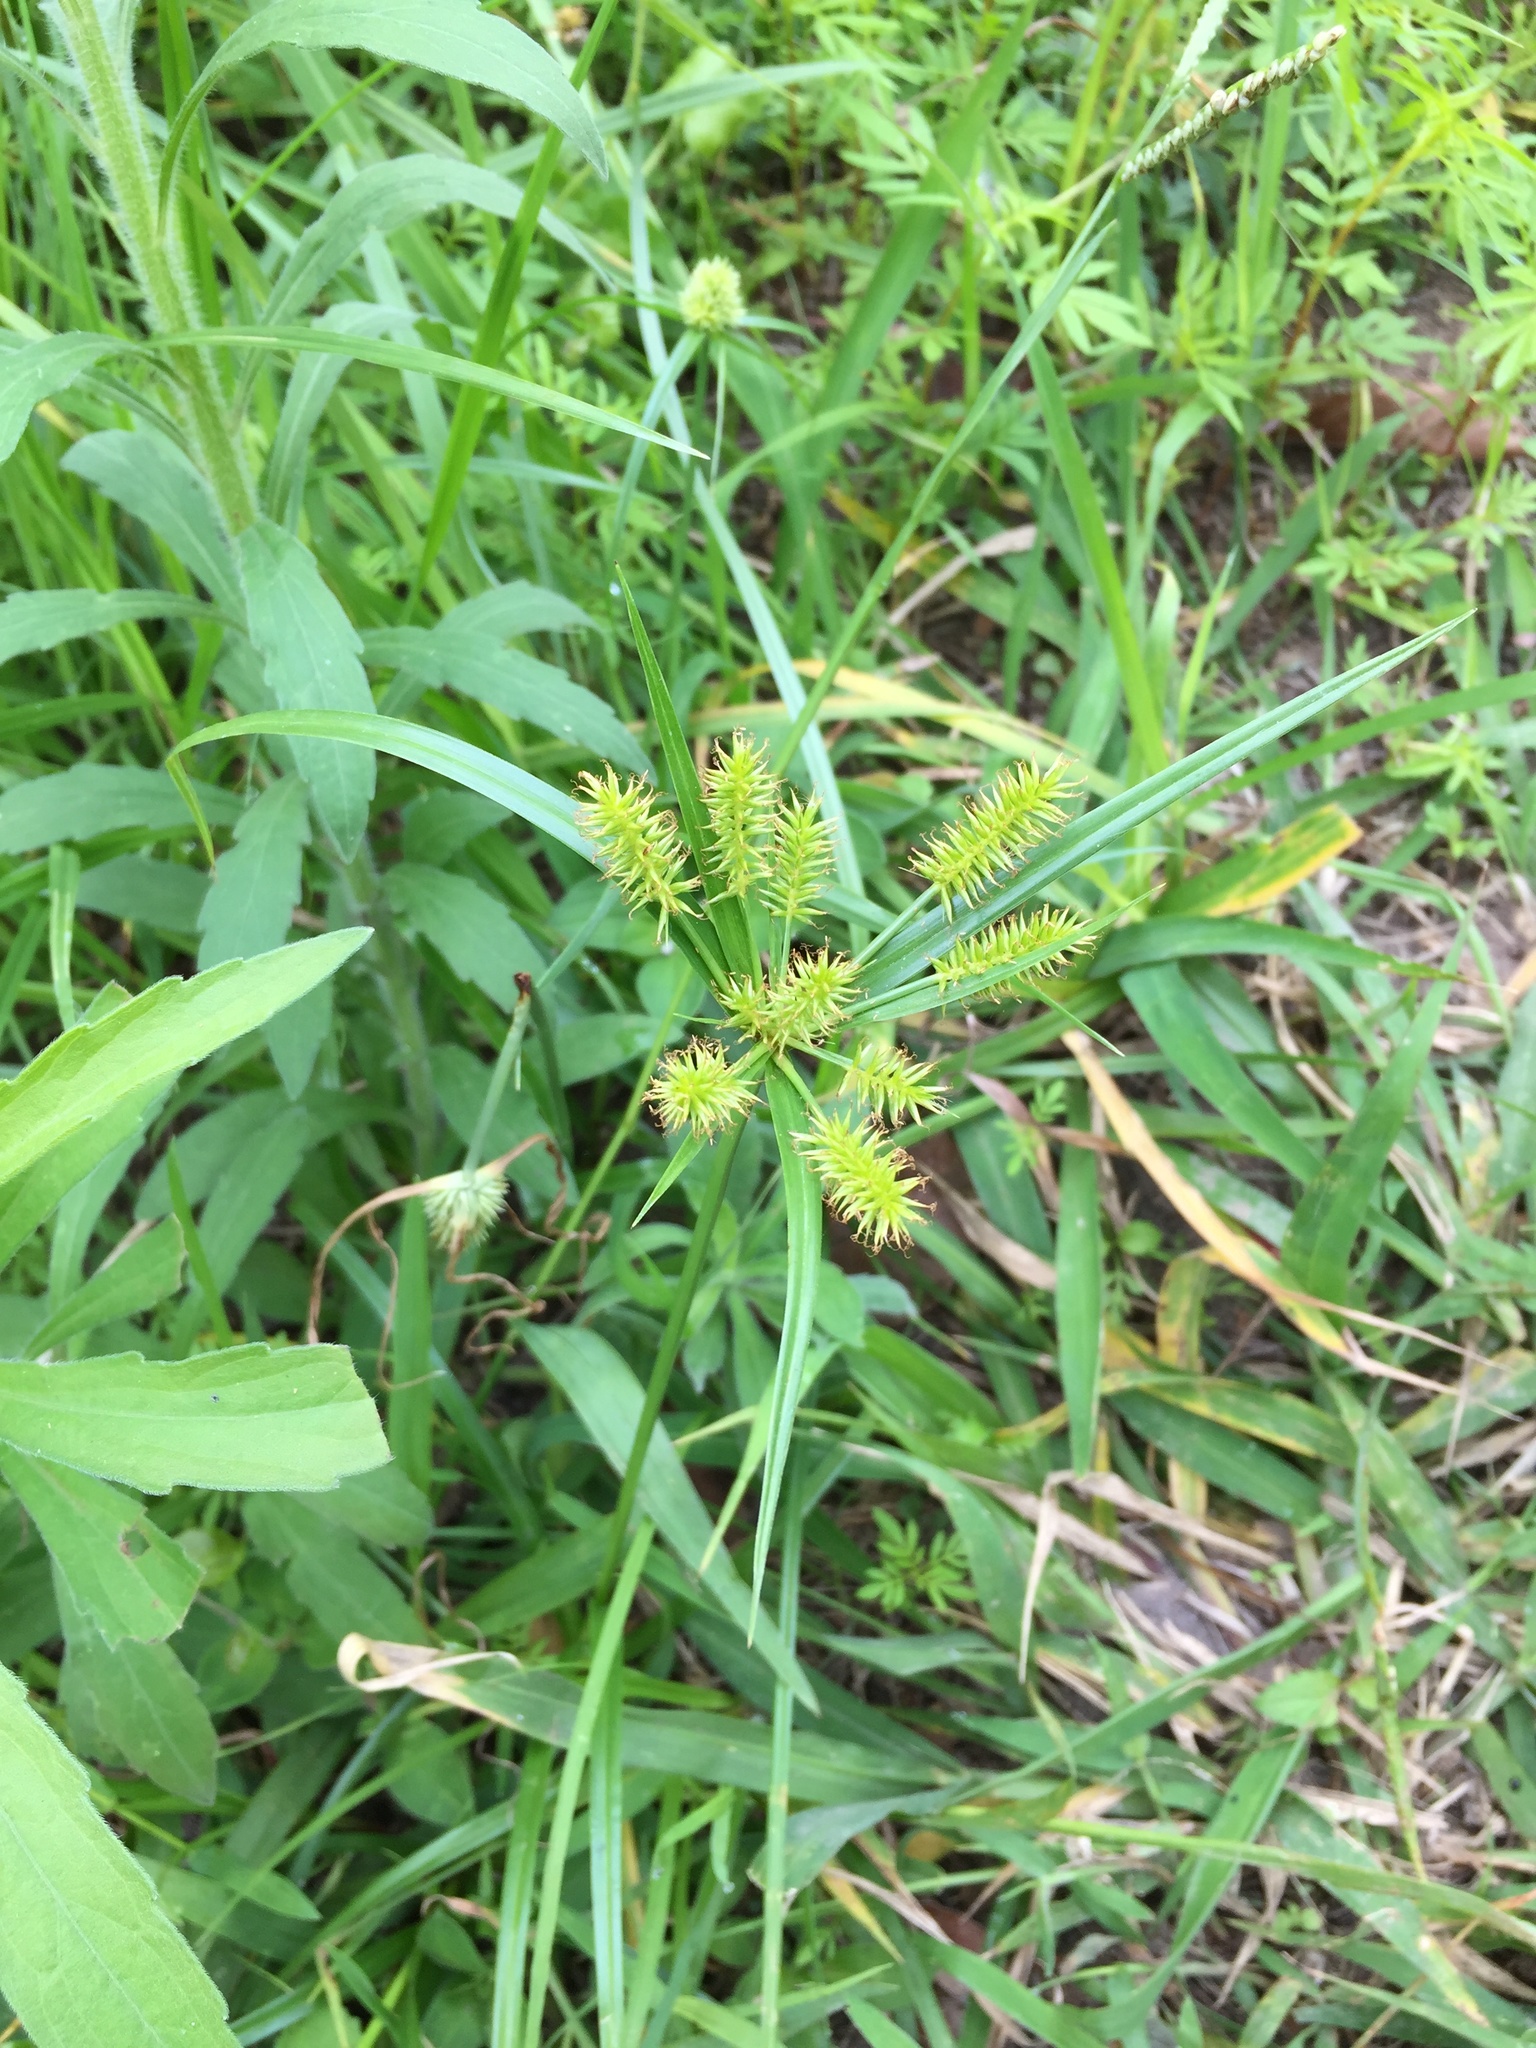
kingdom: Plantae
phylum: Tracheophyta
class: Liliopsida
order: Poales
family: Cyperaceae
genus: Cyperus
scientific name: Cyperus cyperoides
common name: Pacific island flat sedge
